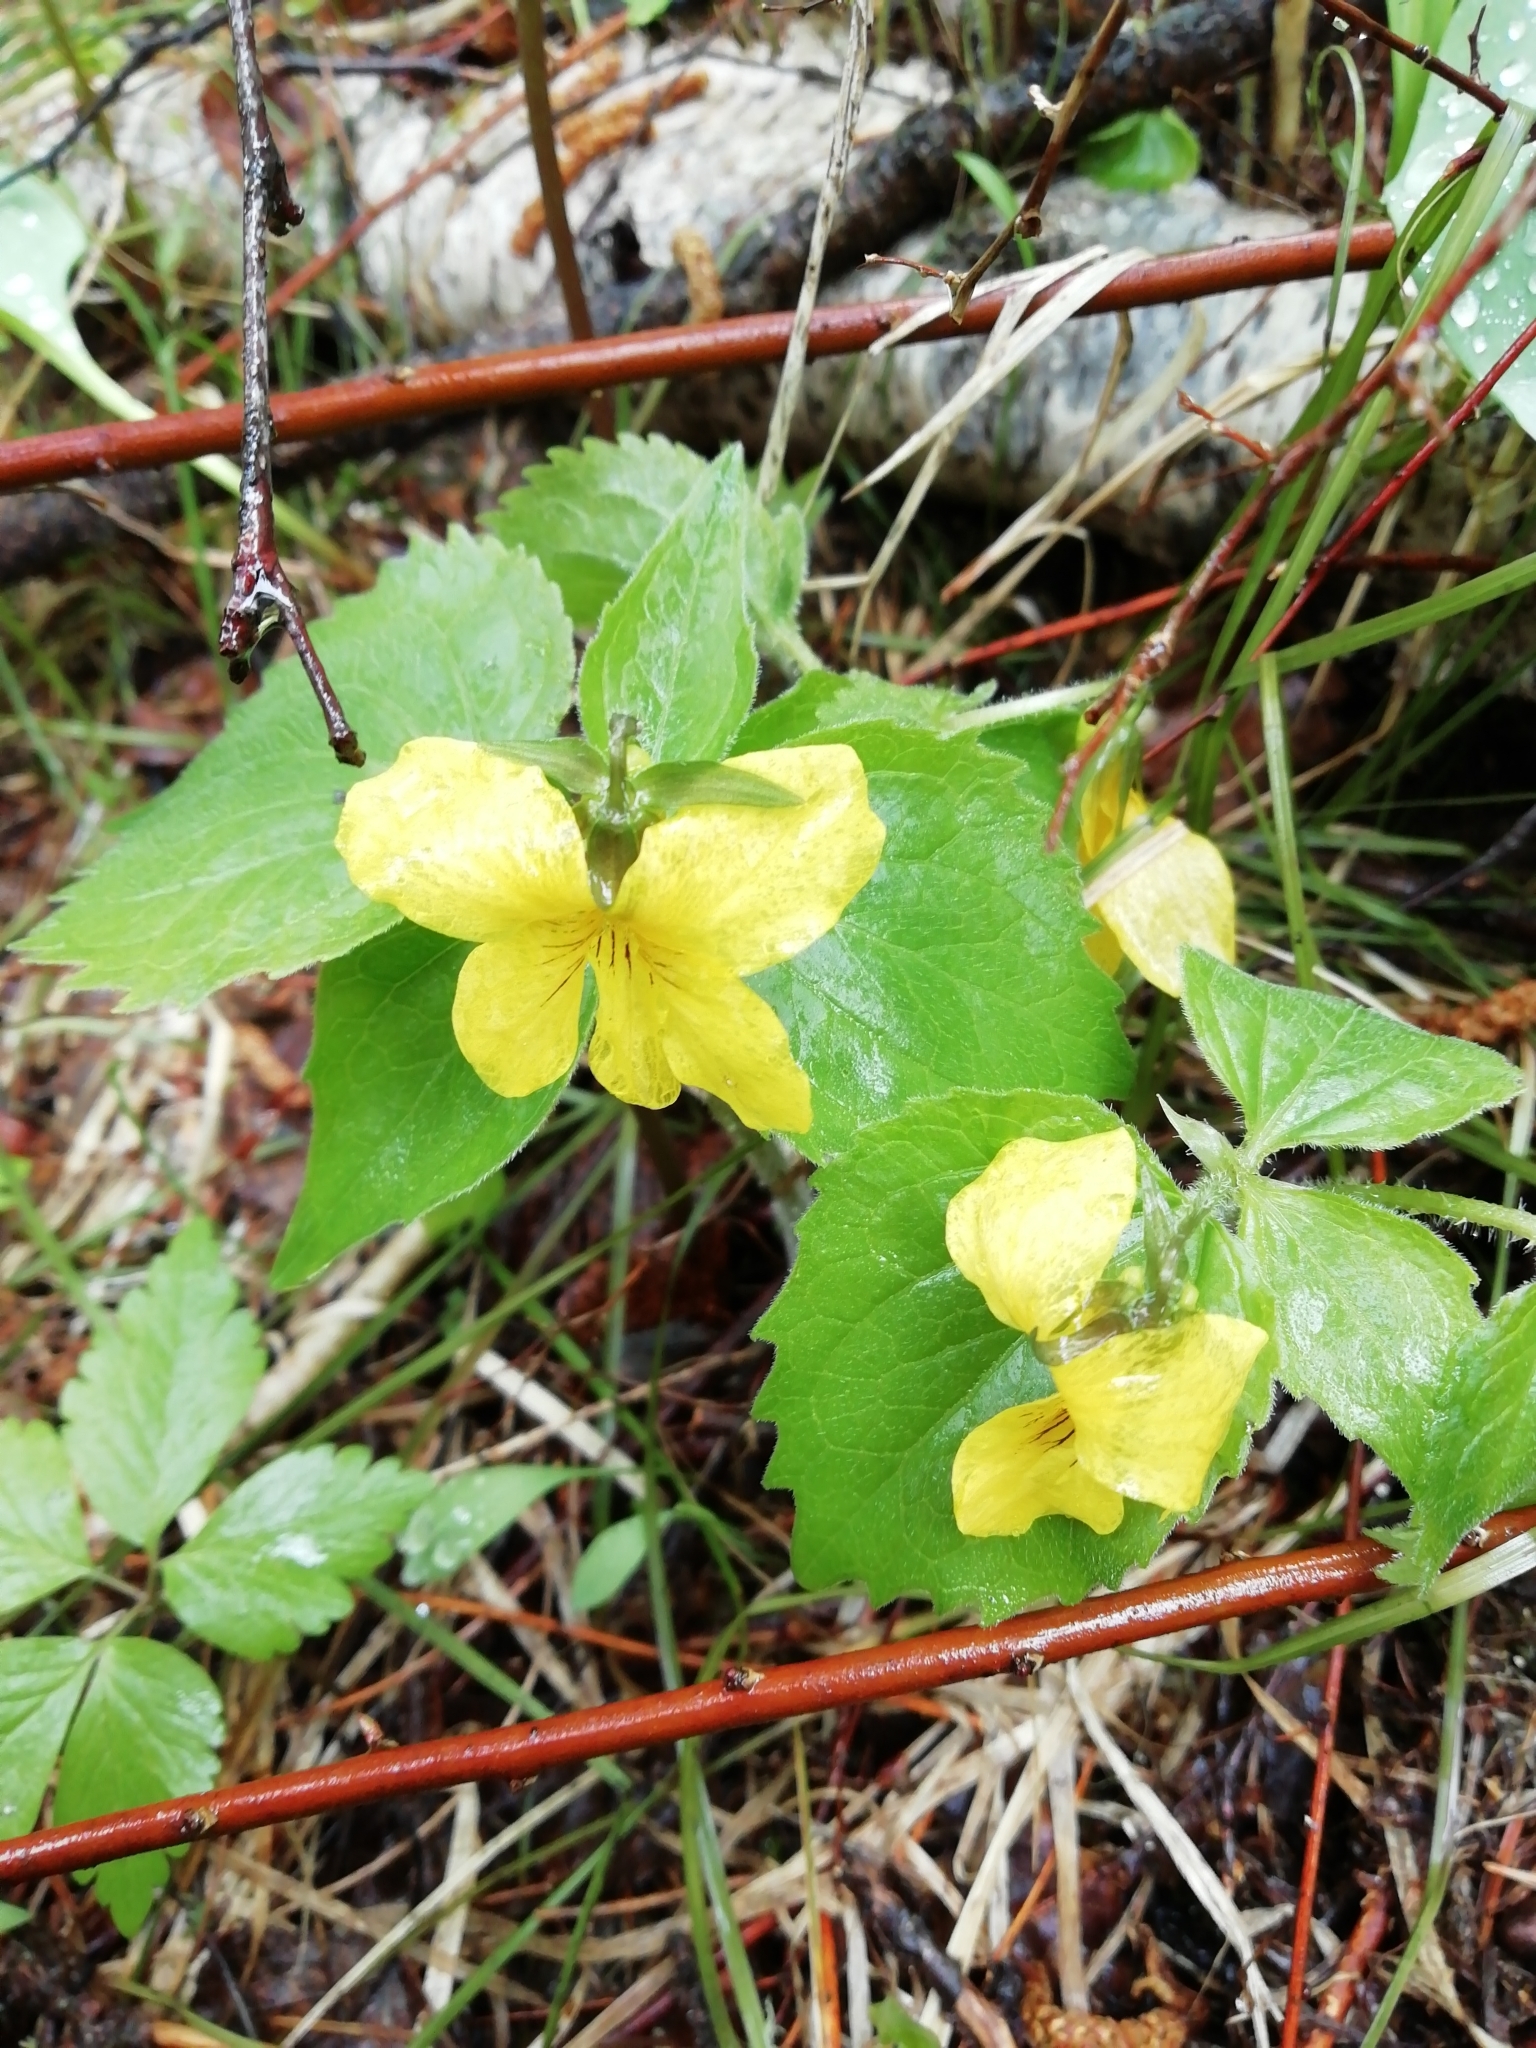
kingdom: Plantae
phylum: Tracheophyta
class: Magnoliopsida
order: Malpighiales
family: Violaceae
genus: Viola
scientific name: Viola uniflora
